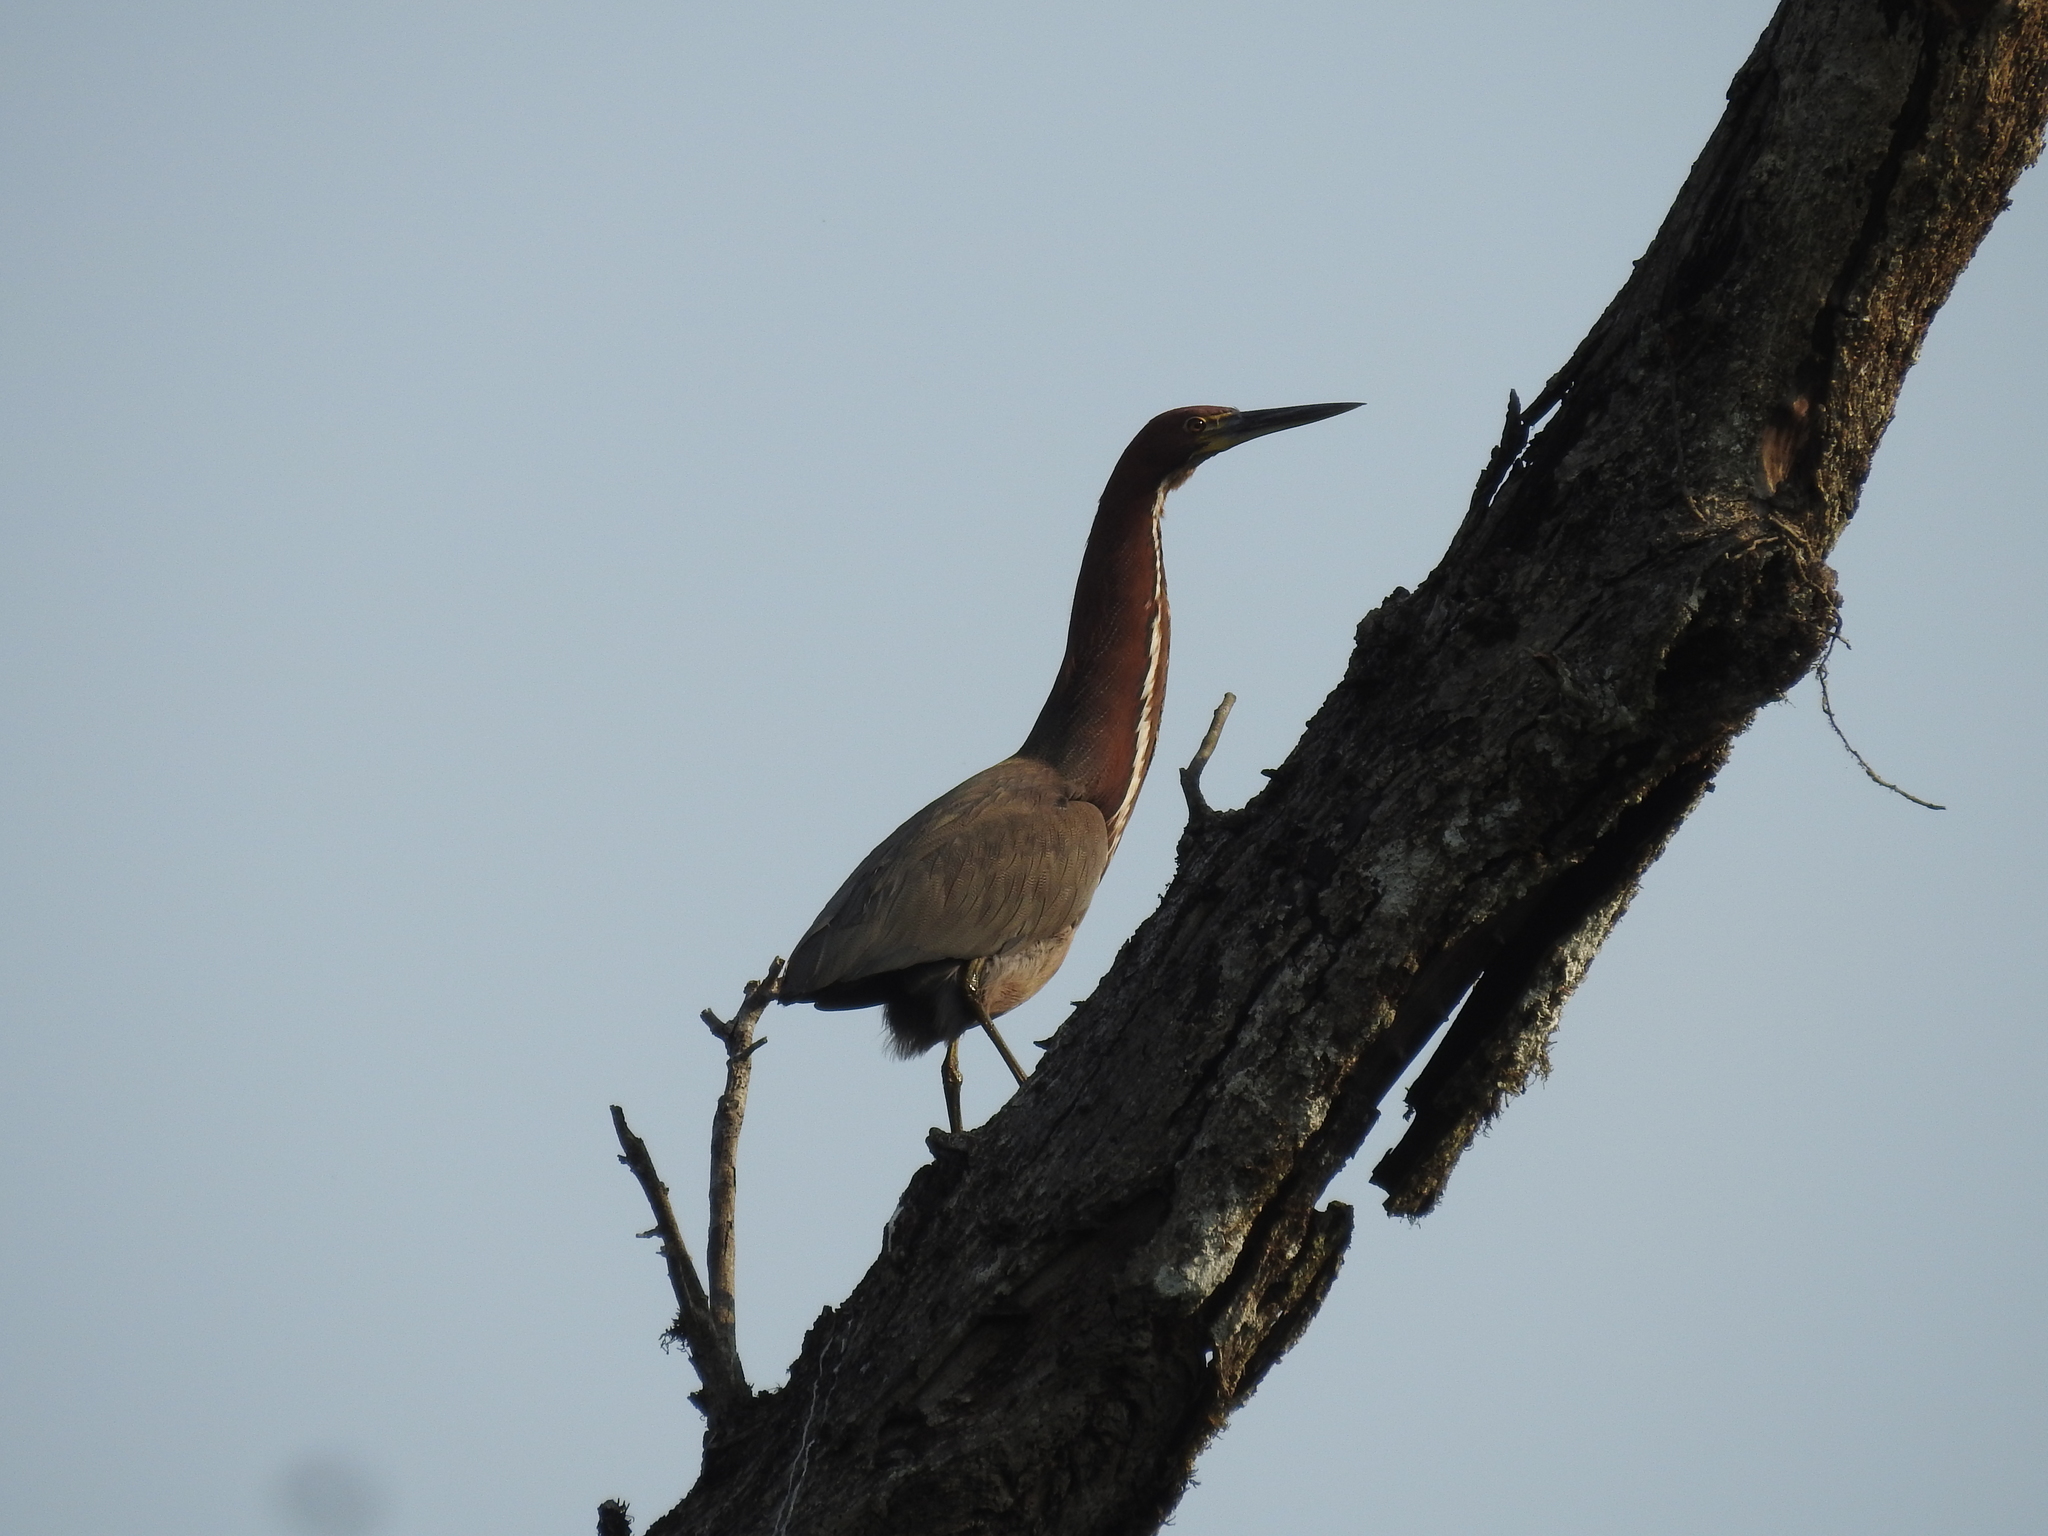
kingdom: Animalia
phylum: Chordata
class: Aves
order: Pelecaniformes
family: Ardeidae
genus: Tigrisoma
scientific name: Tigrisoma lineatum
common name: Rufescent tiger-heron
